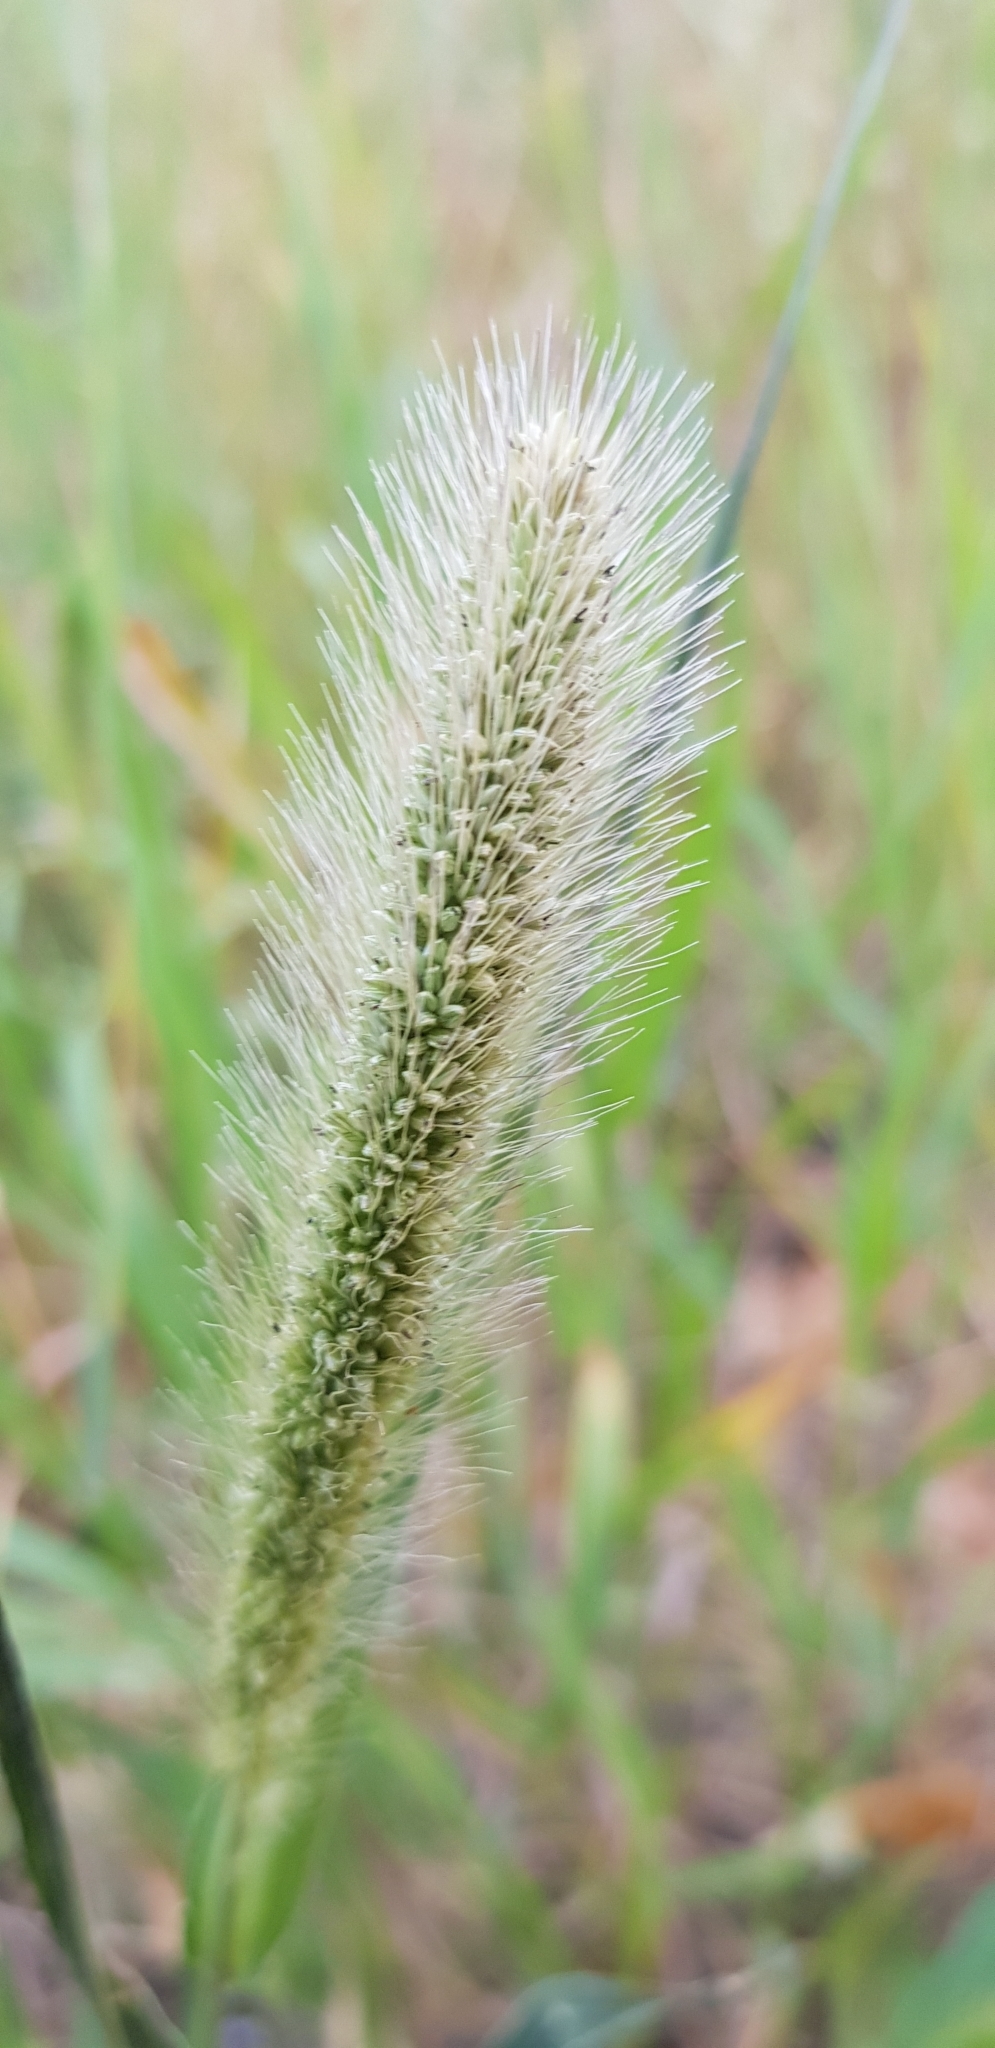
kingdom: Plantae
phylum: Tracheophyta
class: Liliopsida
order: Poales
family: Poaceae
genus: Setaria
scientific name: Setaria viridis
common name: Green bristlegrass
